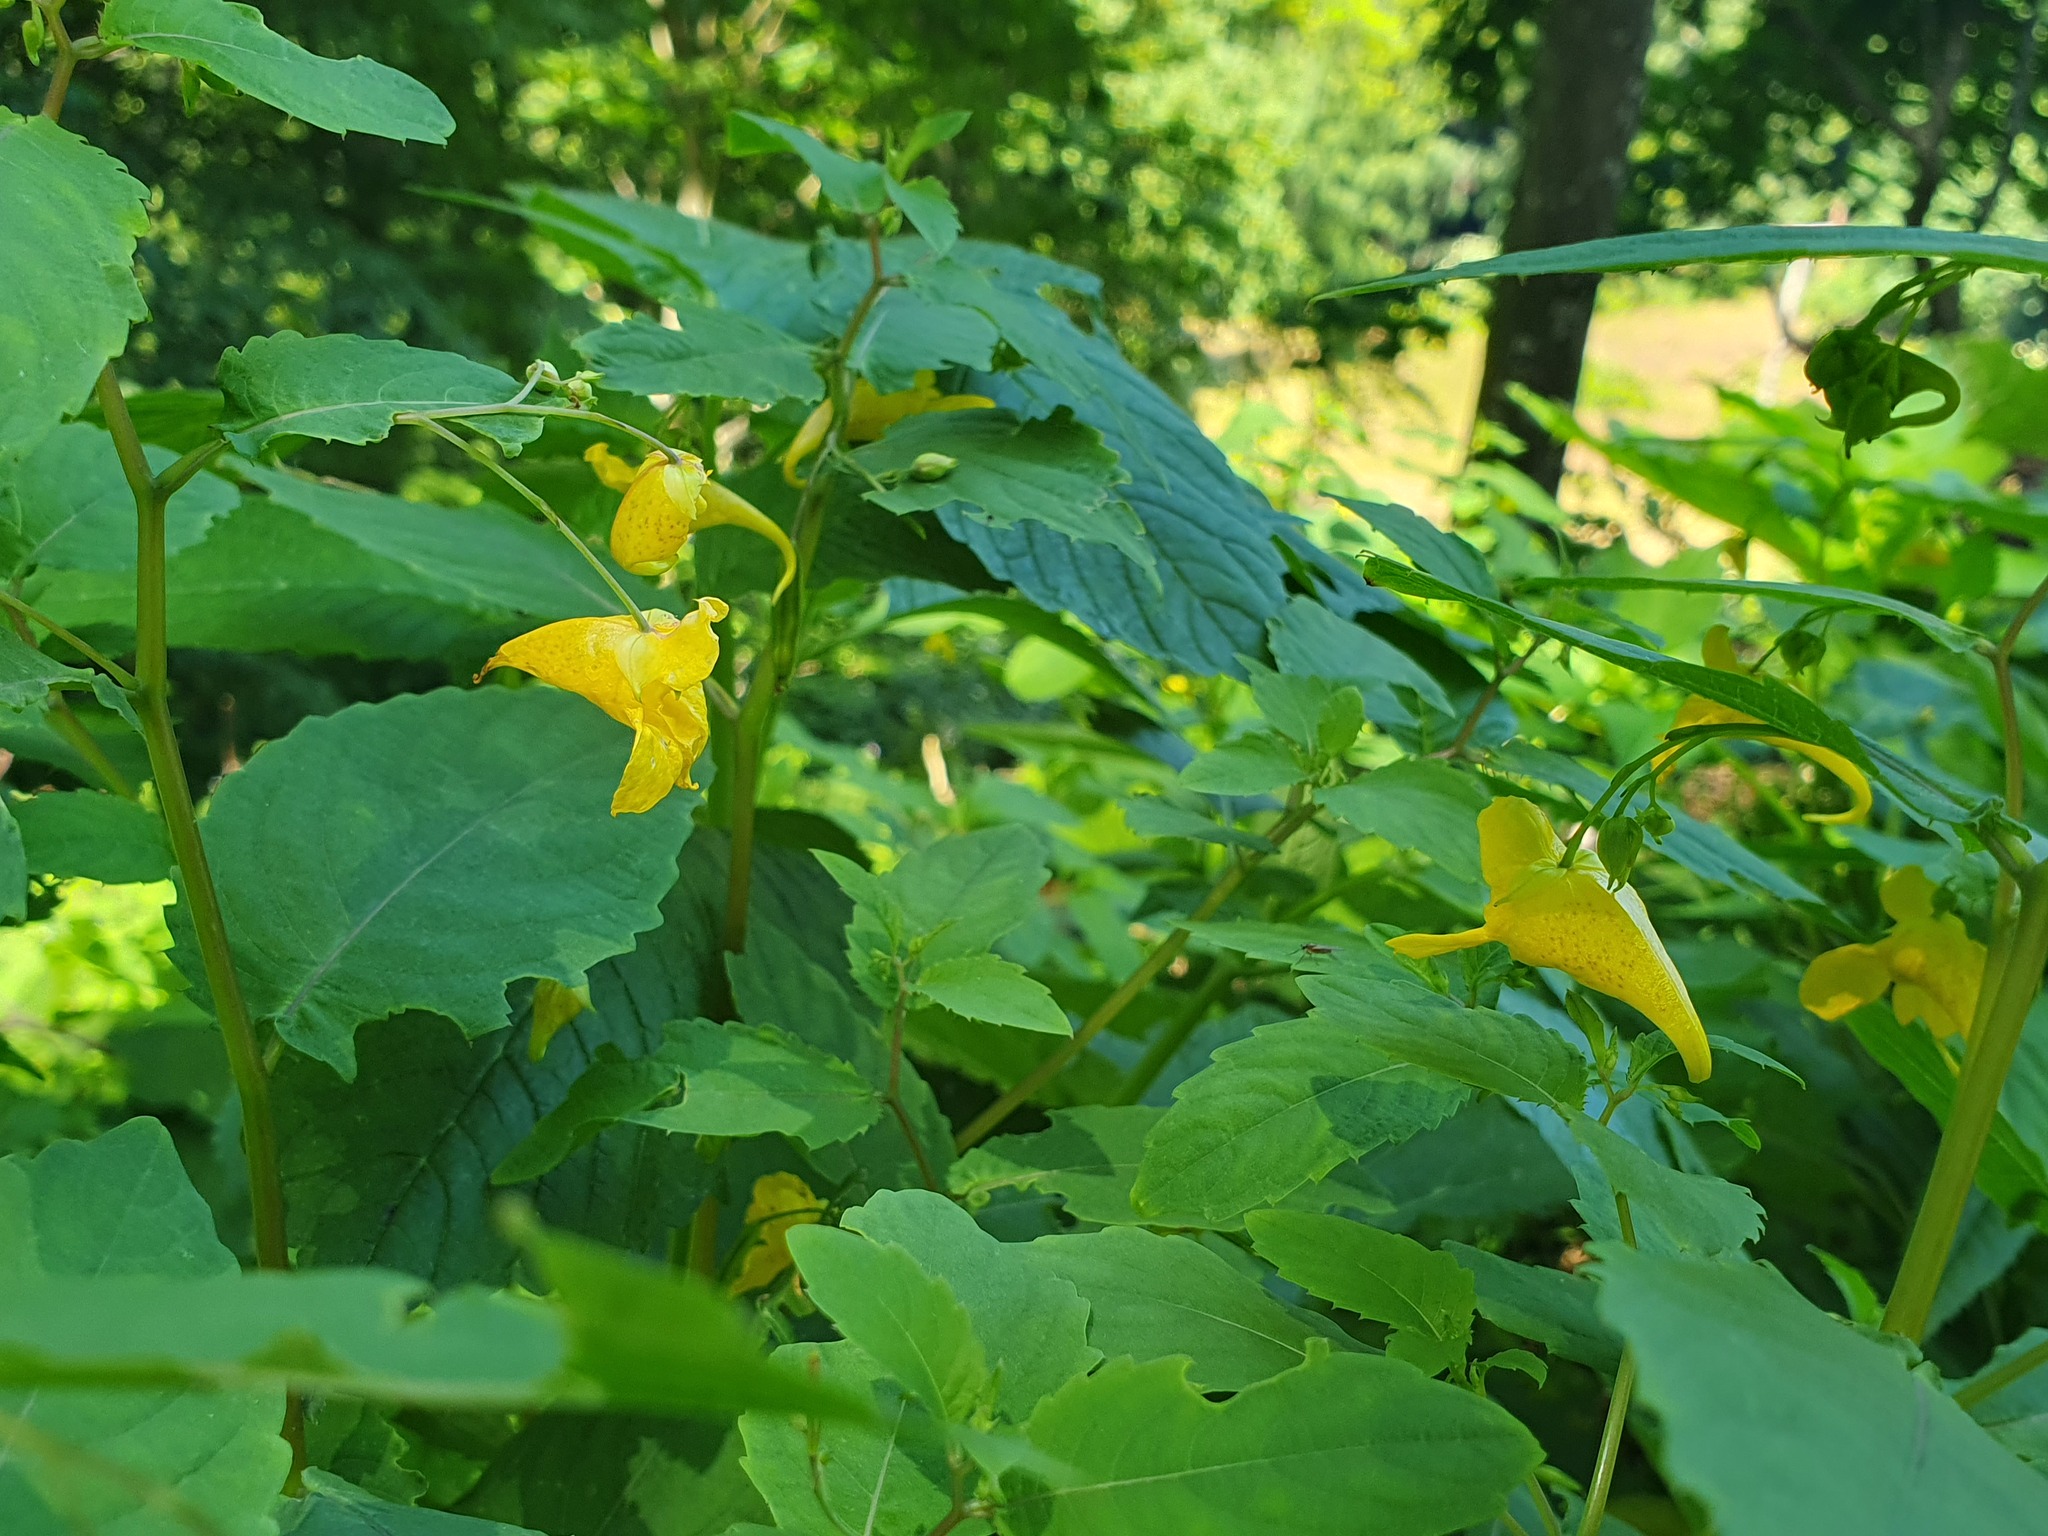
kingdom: Plantae
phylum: Tracheophyta
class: Magnoliopsida
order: Ericales
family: Balsaminaceae
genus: Impatiens
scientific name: Impatiens noli-tangere
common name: Touch-me-not balsam
